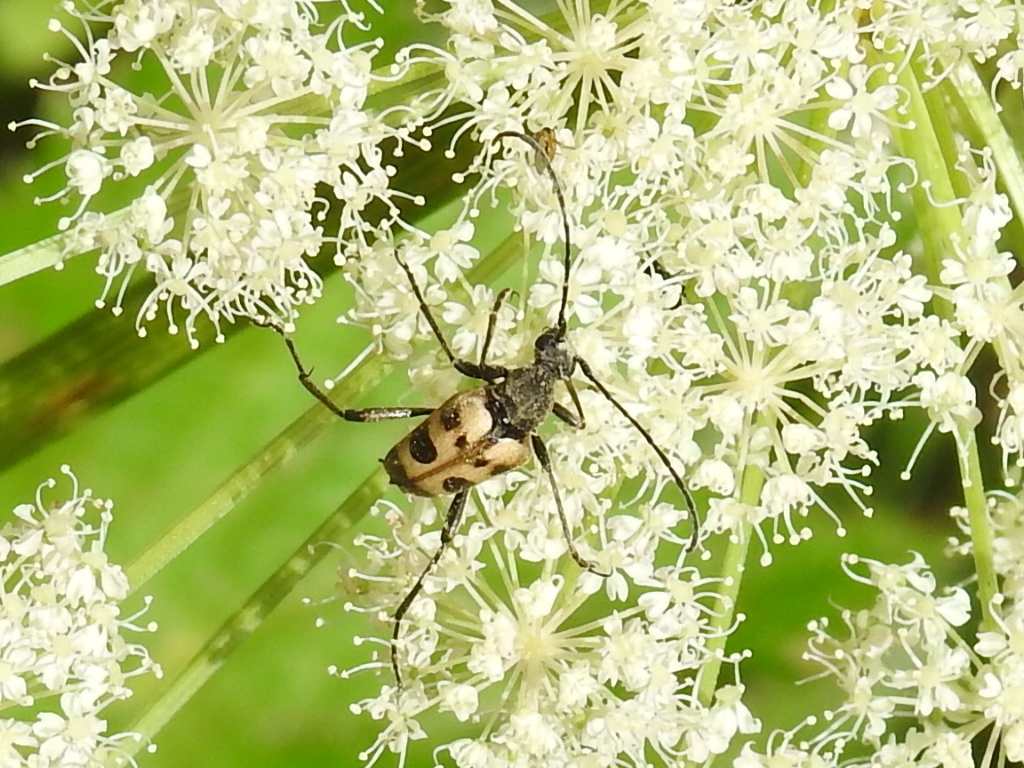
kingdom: Animalia
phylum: Arthropoda
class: Insecta
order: Coleoptera
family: Cerambycidae
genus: Pachytodes
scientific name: Pachytodes cerambyciformis
